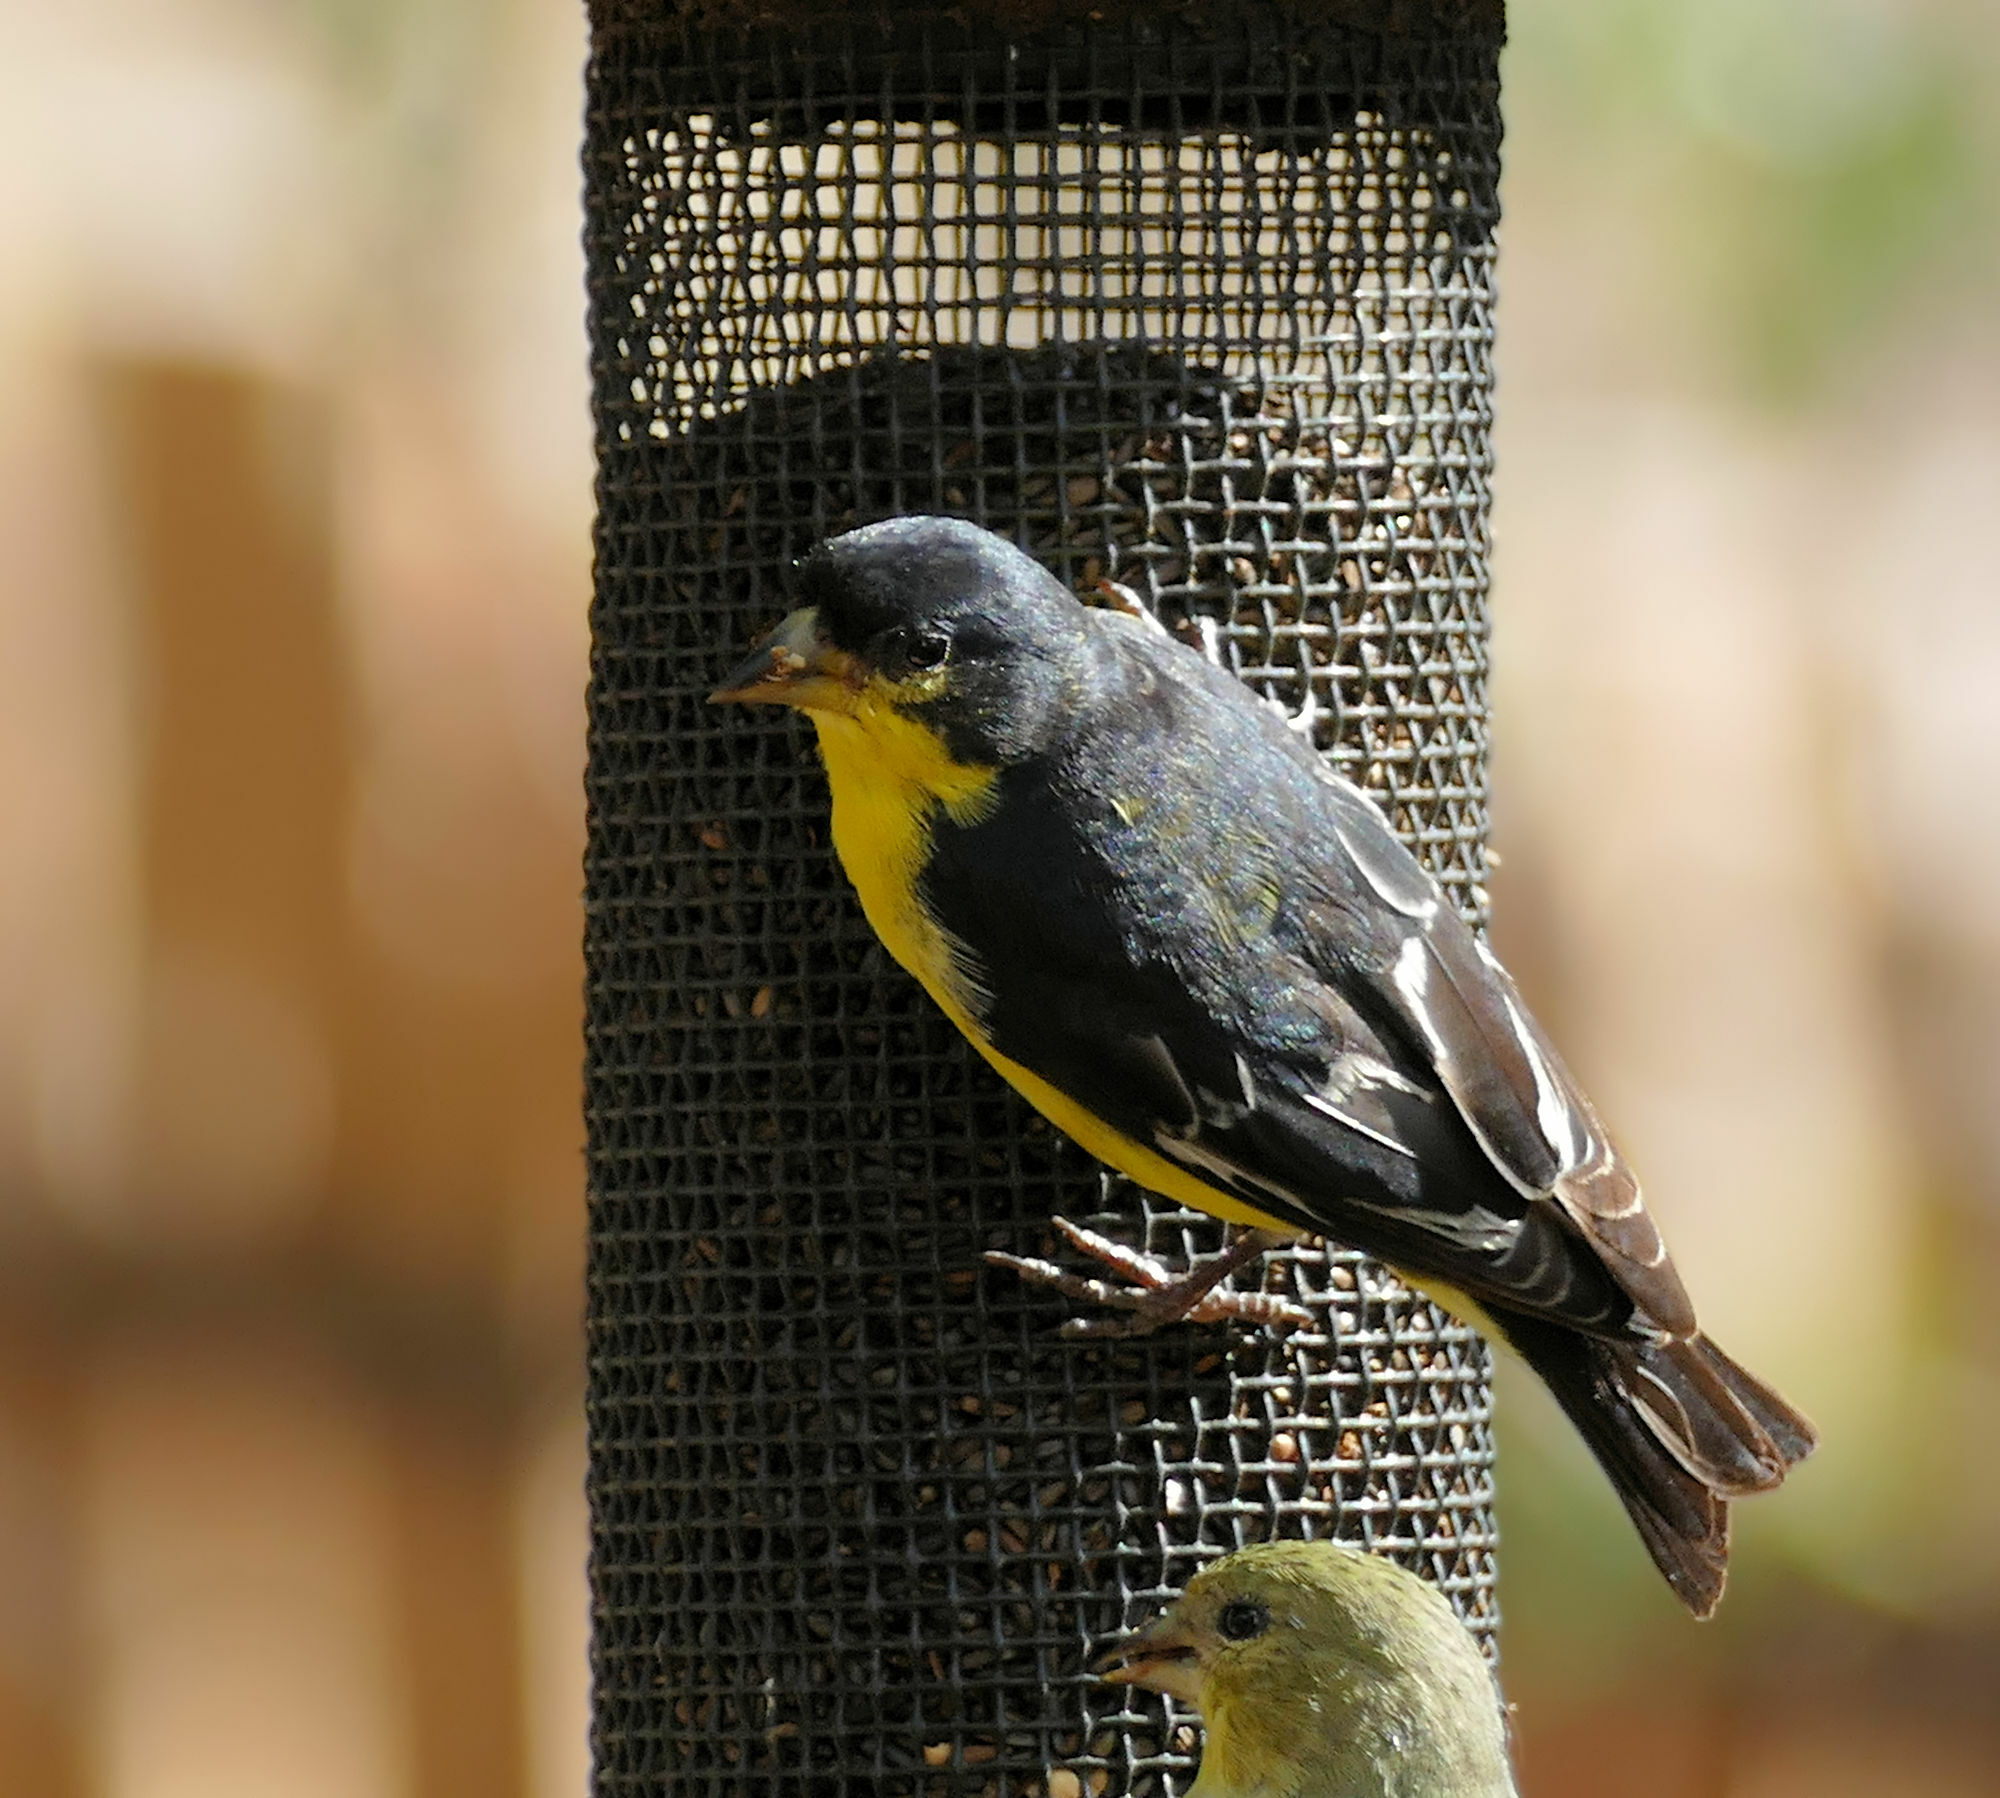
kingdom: Animalia
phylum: Chordata
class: Aves
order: Passeriformes
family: Fringillidae
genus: Spinus
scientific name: Spinus psaltria
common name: Lesser goldfinch
